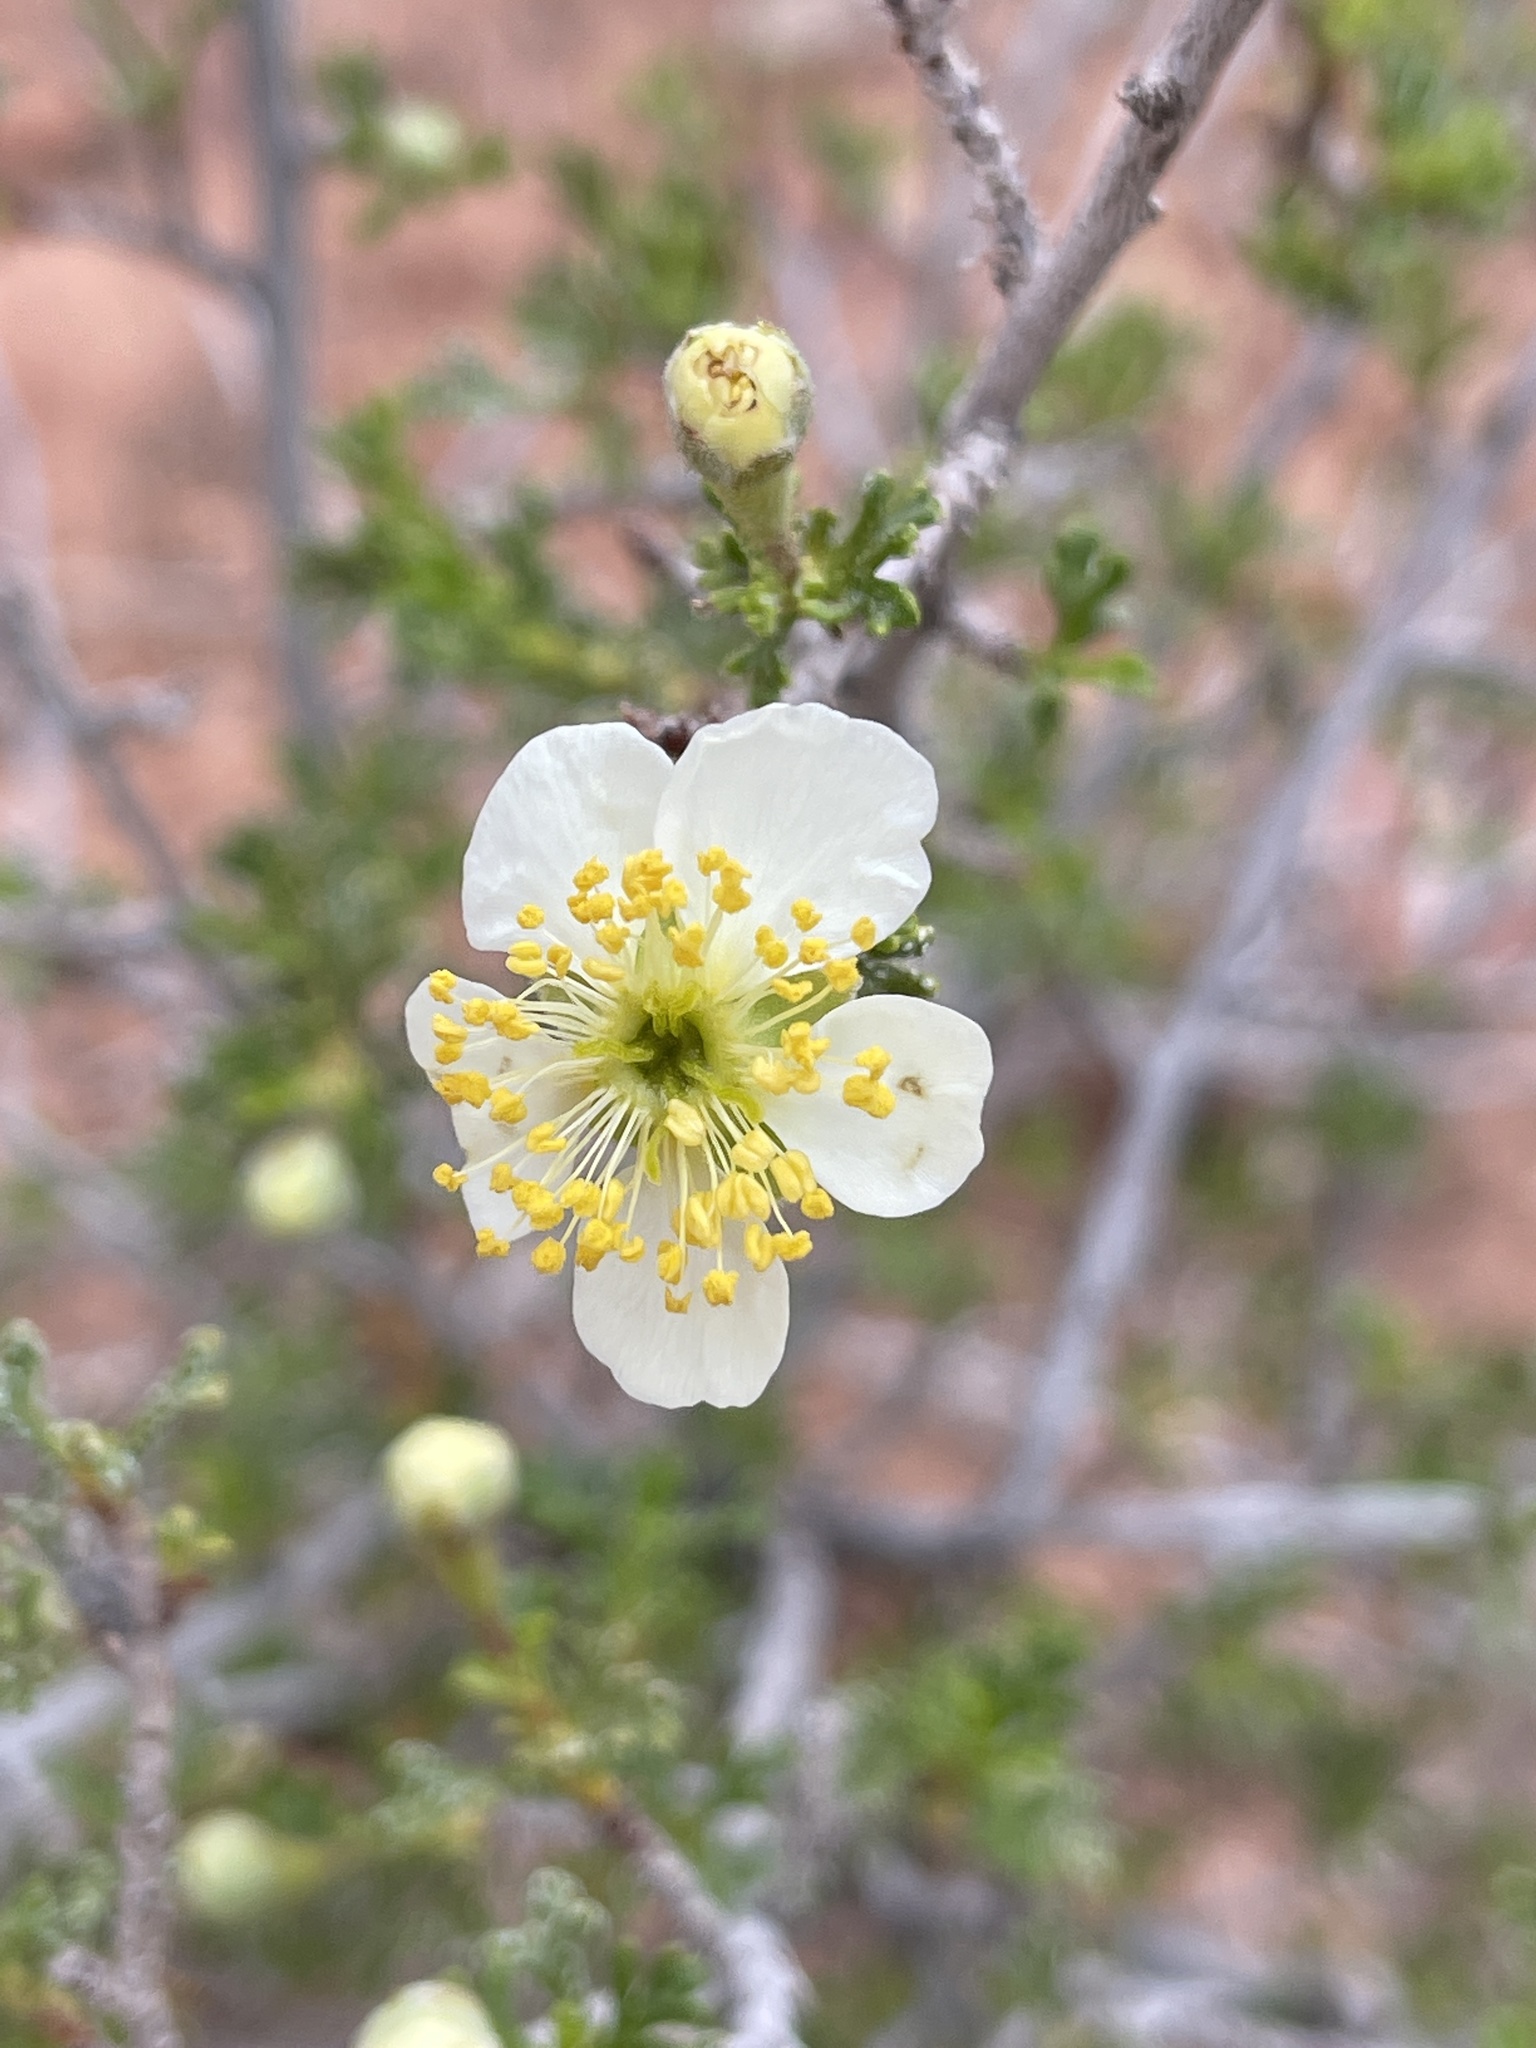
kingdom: Plantae
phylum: Tracheophyta
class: Magnoliopsida
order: Rosales
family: Rosaceae
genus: Purshia
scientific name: Purshia stansburiana
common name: Stansbury's cliffrose
